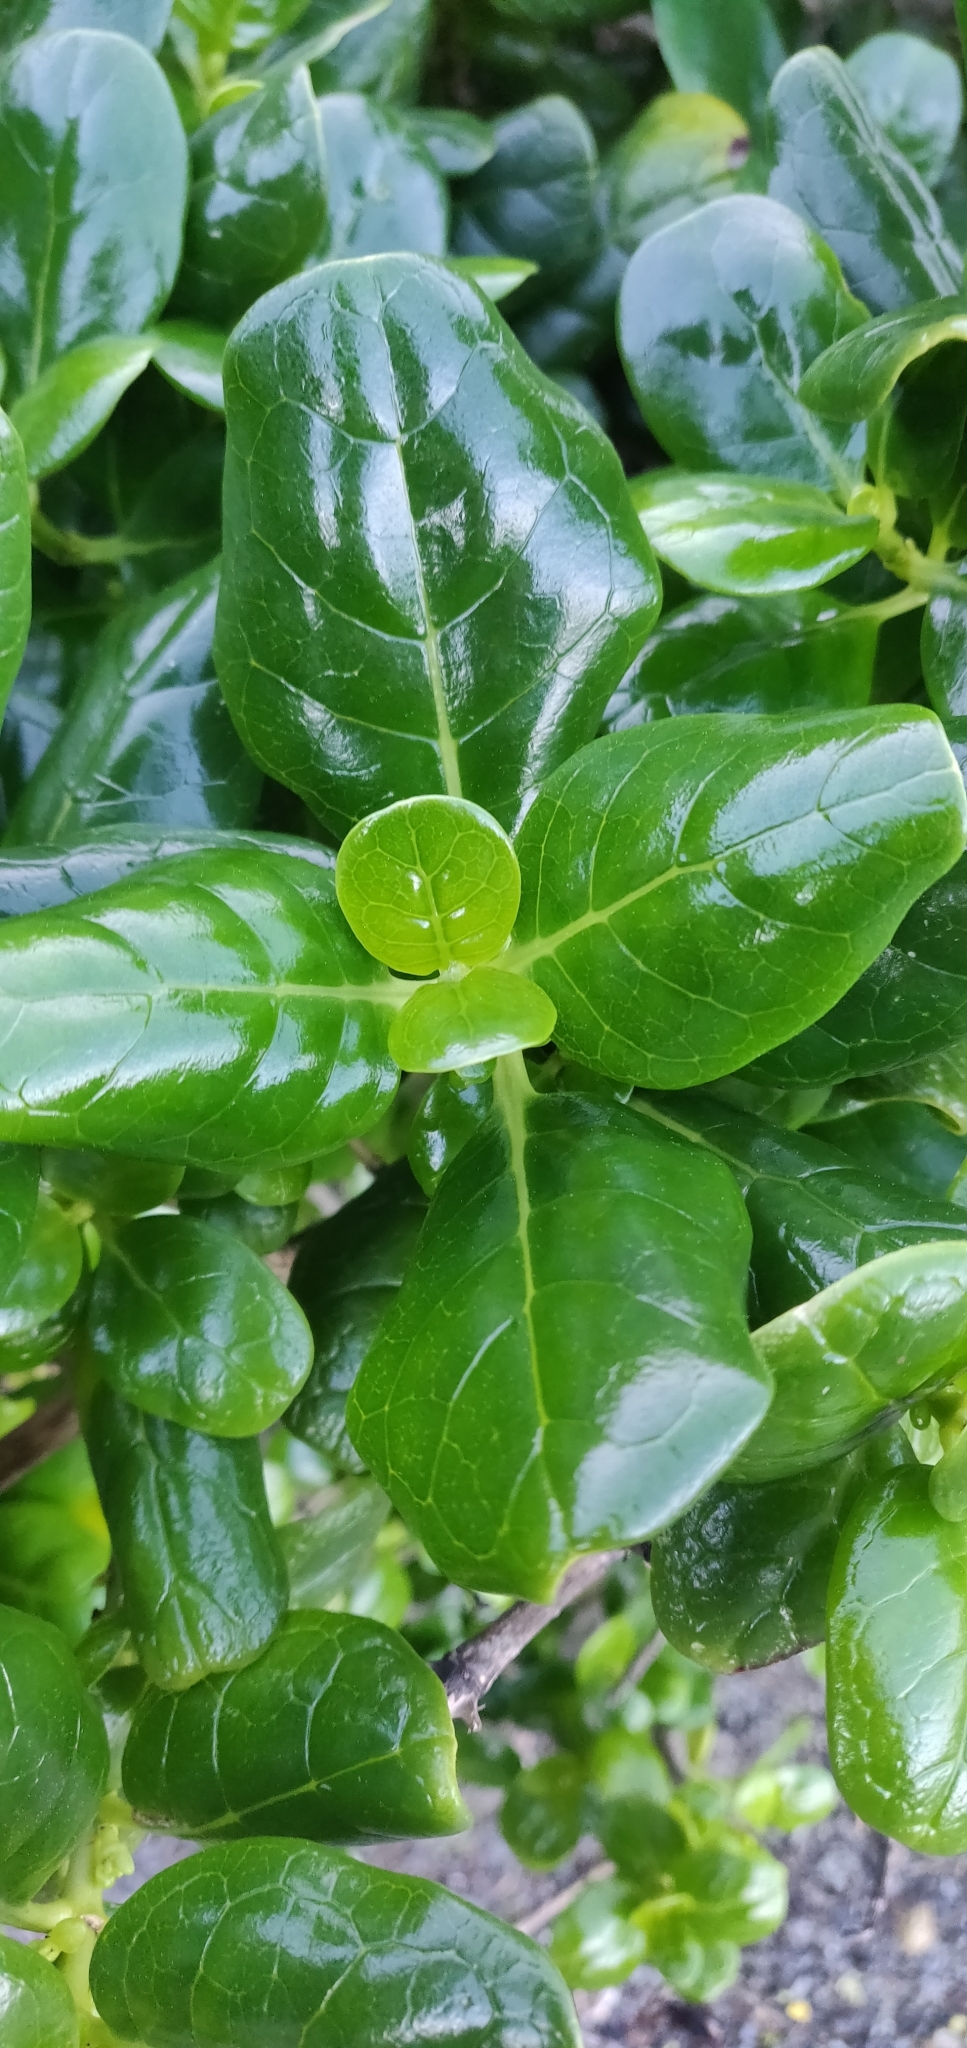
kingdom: Plantae
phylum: Tracheophyta
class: Magnoliopsida
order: Gentianales
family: Rubiaceae
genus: Coprosma
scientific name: Coprosma repens
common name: Tree bedstraw
